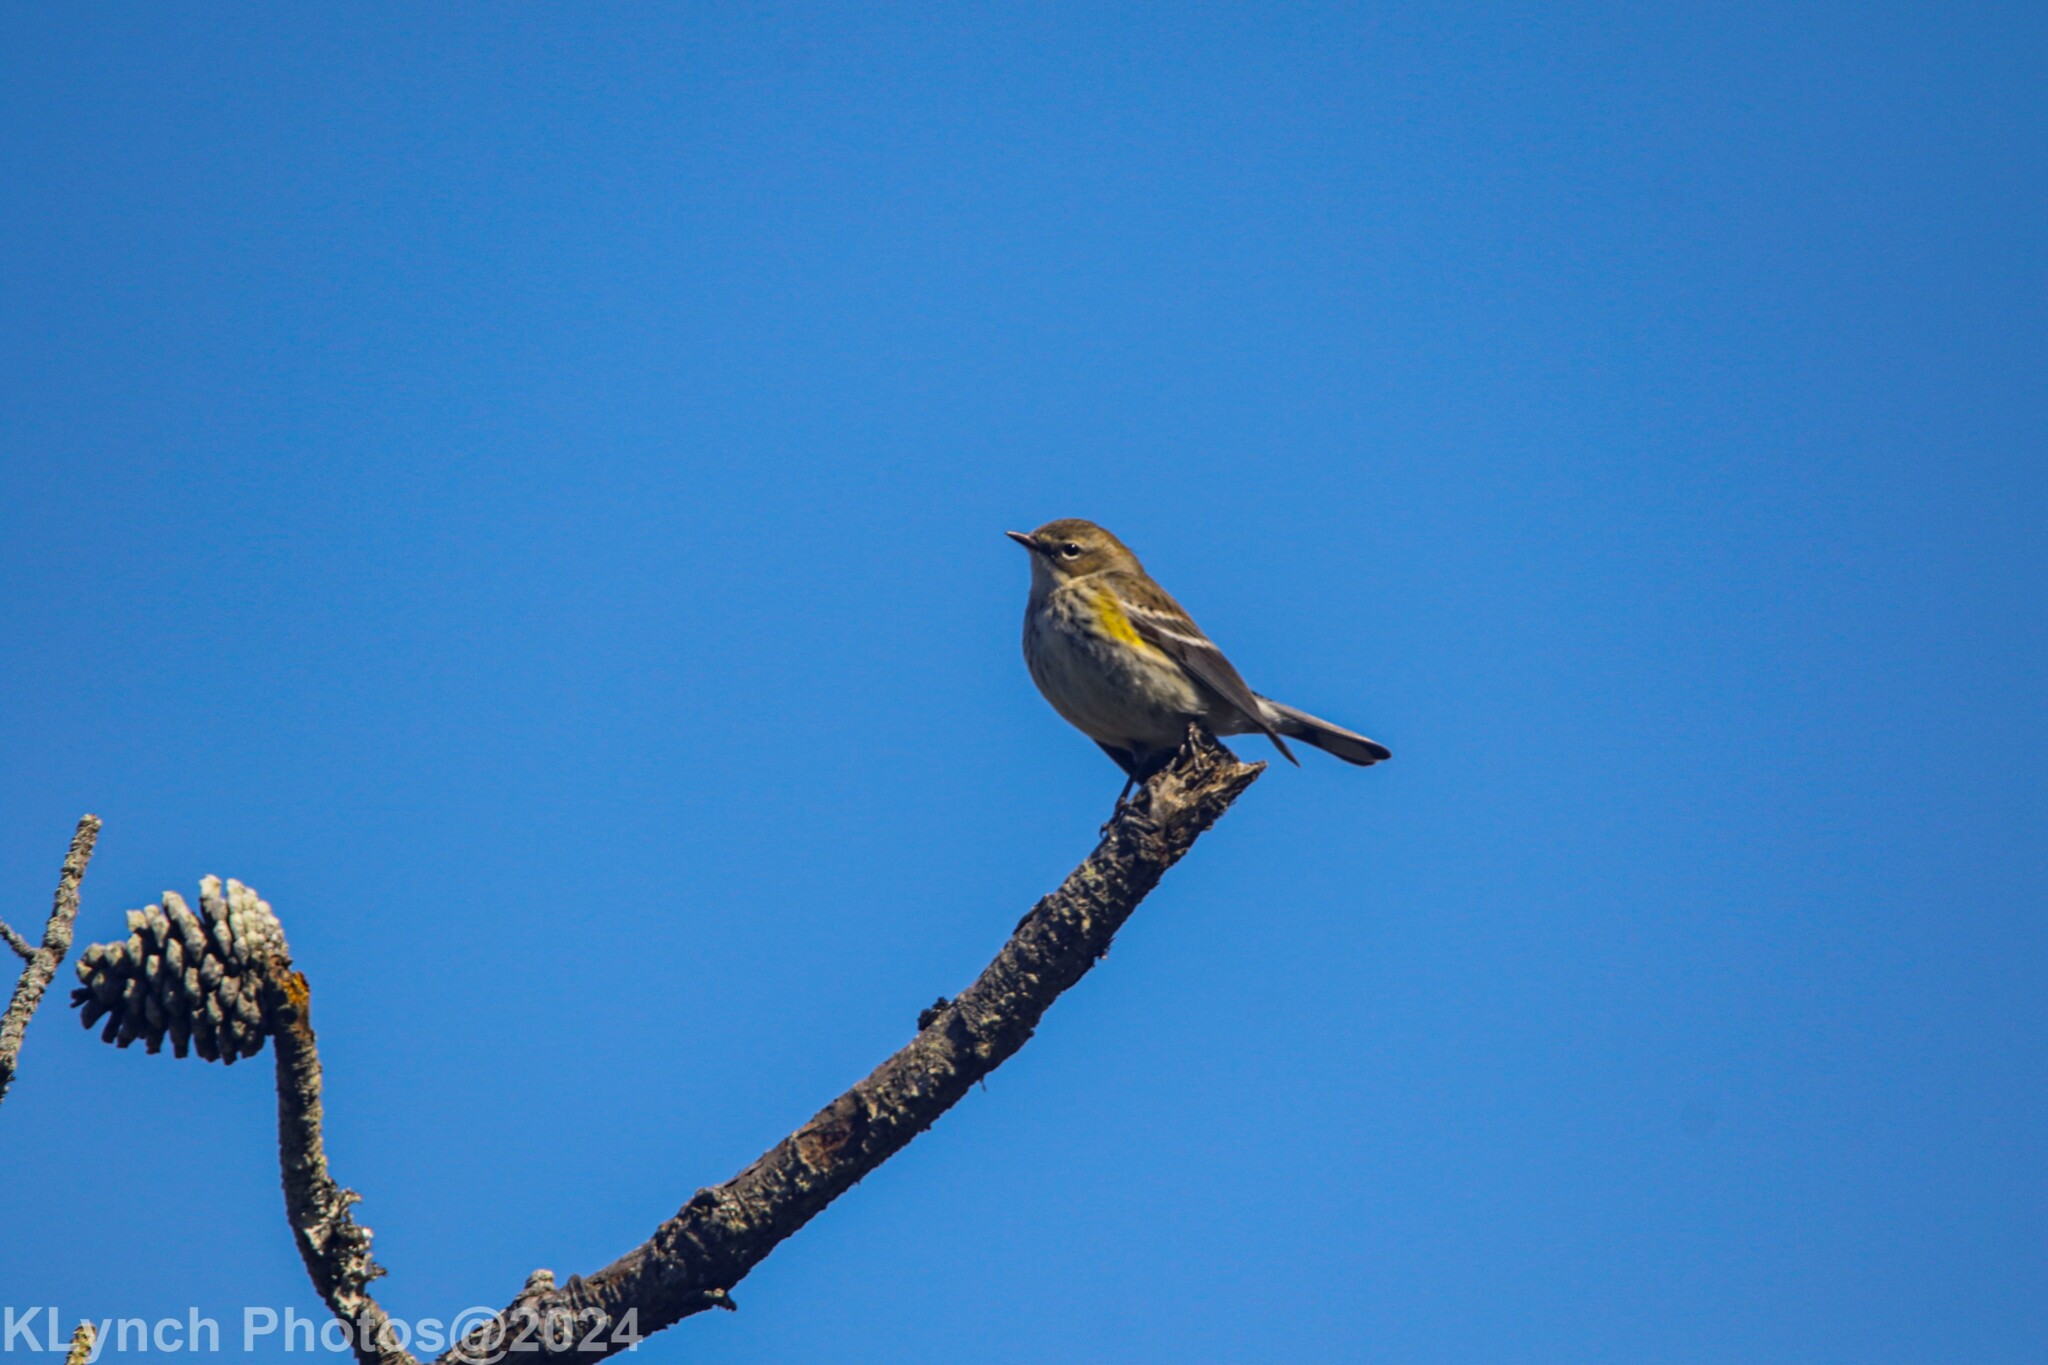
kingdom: Animalia
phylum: Chordata
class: Aves
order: Passeriformes
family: Parulidae
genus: Setophaga
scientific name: Setophaga coronata
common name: Myrtle warbler
